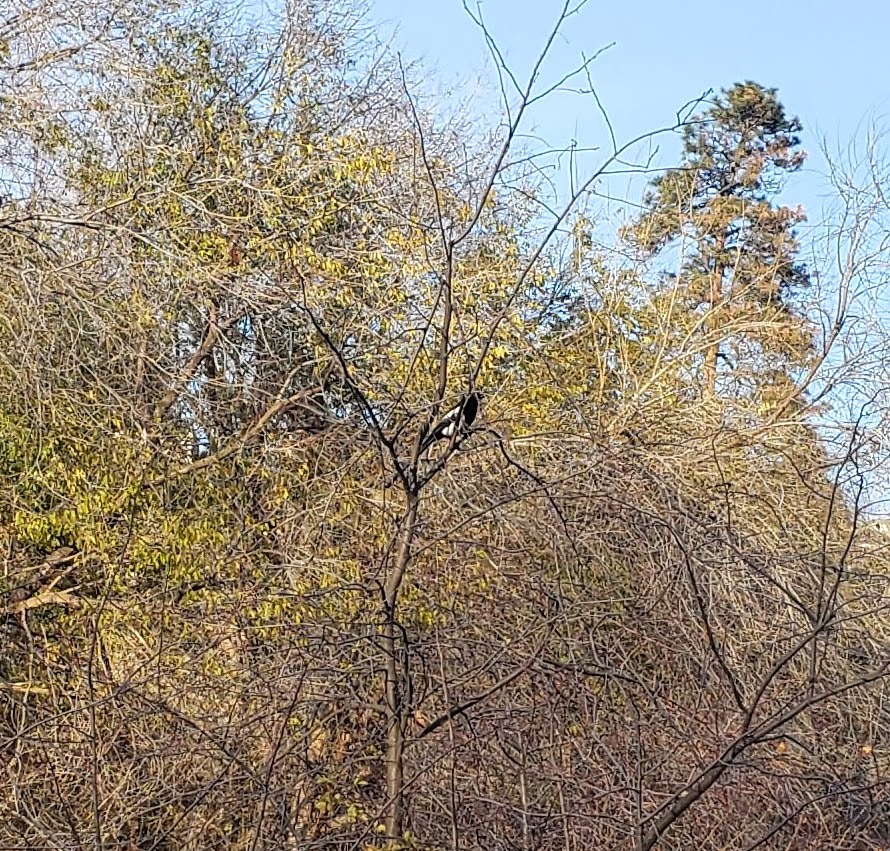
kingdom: Animalia
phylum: Chordata
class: Aves
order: Passeriformes
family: Corvidae
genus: Pica
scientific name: Pica hudsonia
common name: Black-billed magpie
